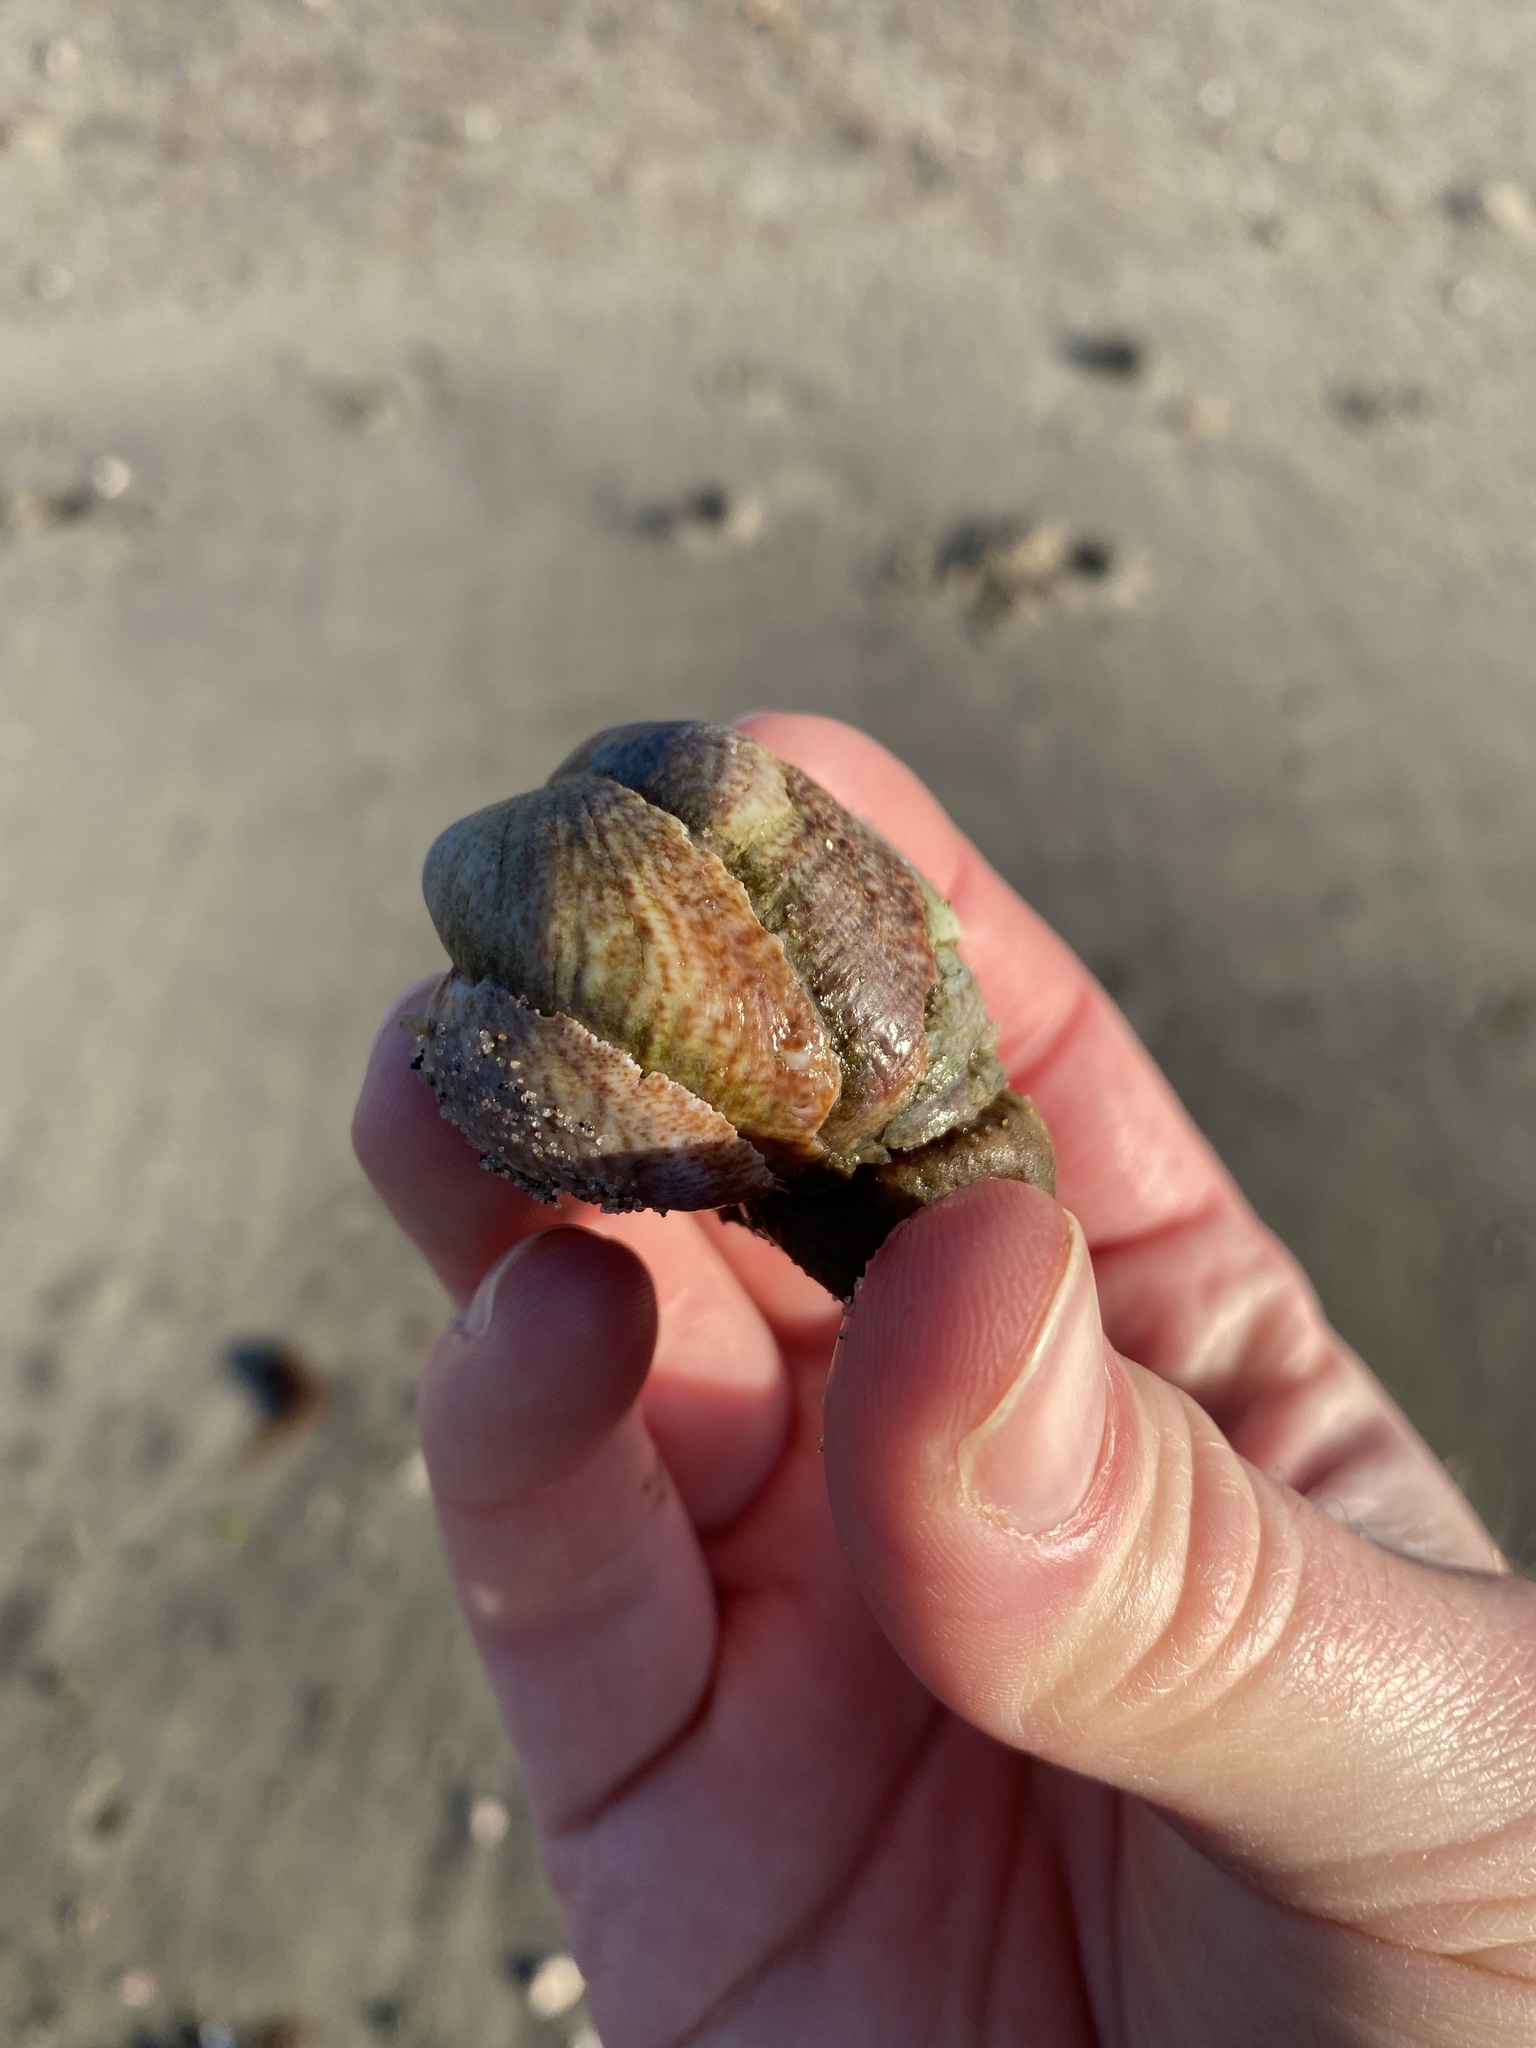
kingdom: Animalia
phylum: Mollusca
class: Gastropoda
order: Littorinimorpha
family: Calyptraeidae
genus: Crepidula
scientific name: Crepidula fornicata
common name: Slipper limpet
